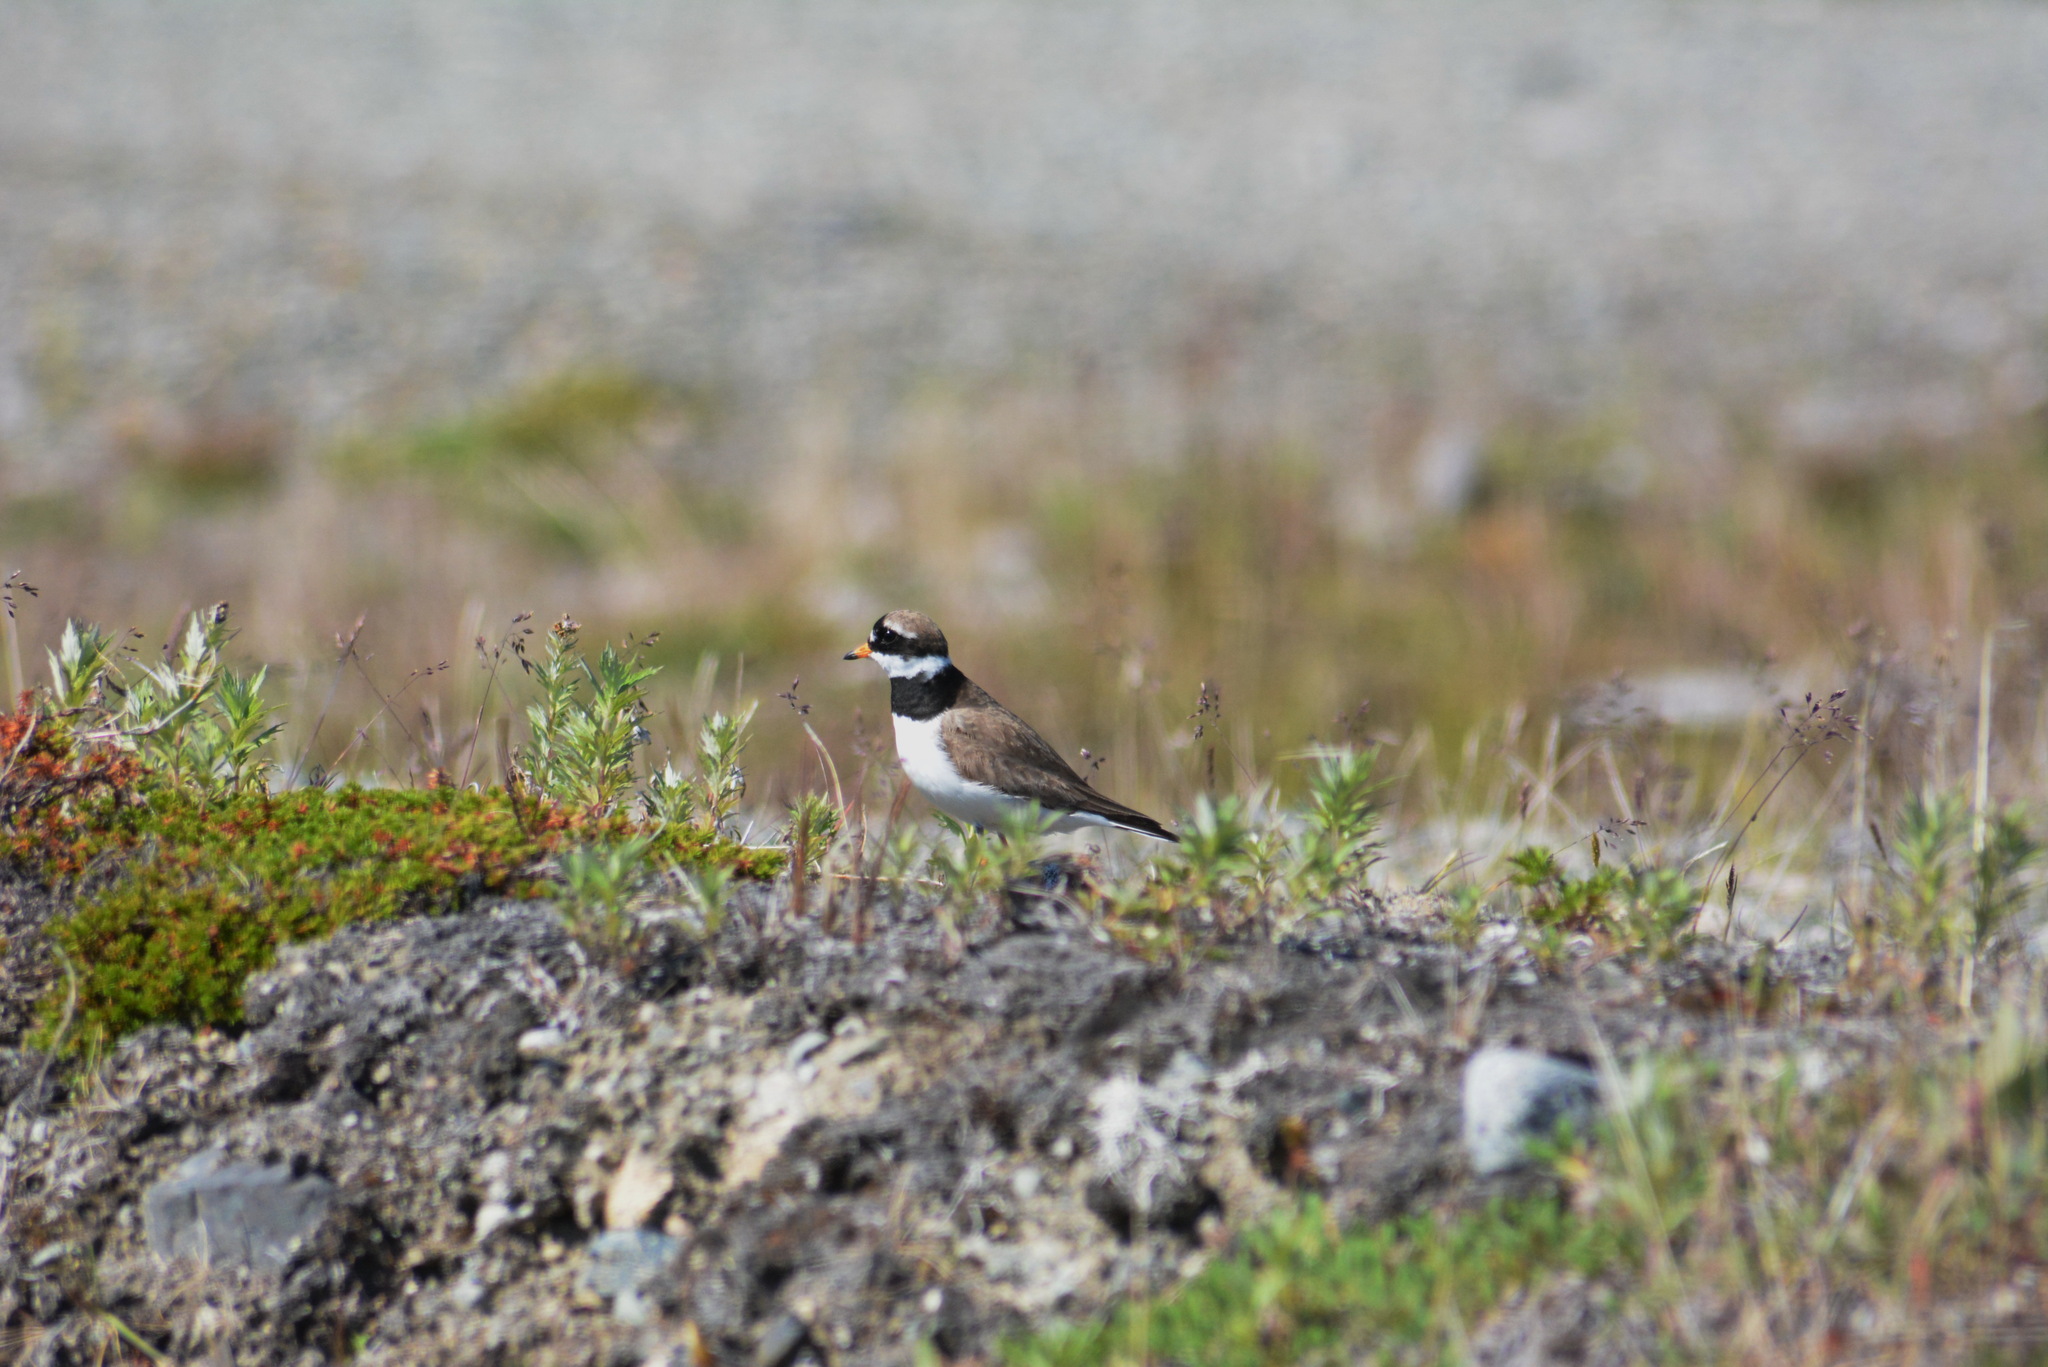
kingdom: Animalia
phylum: Chordata
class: Aves
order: Charadriiformes
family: Charadriidae
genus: Charadrius
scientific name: Charadrius hiaticula
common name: Common ringed plover
